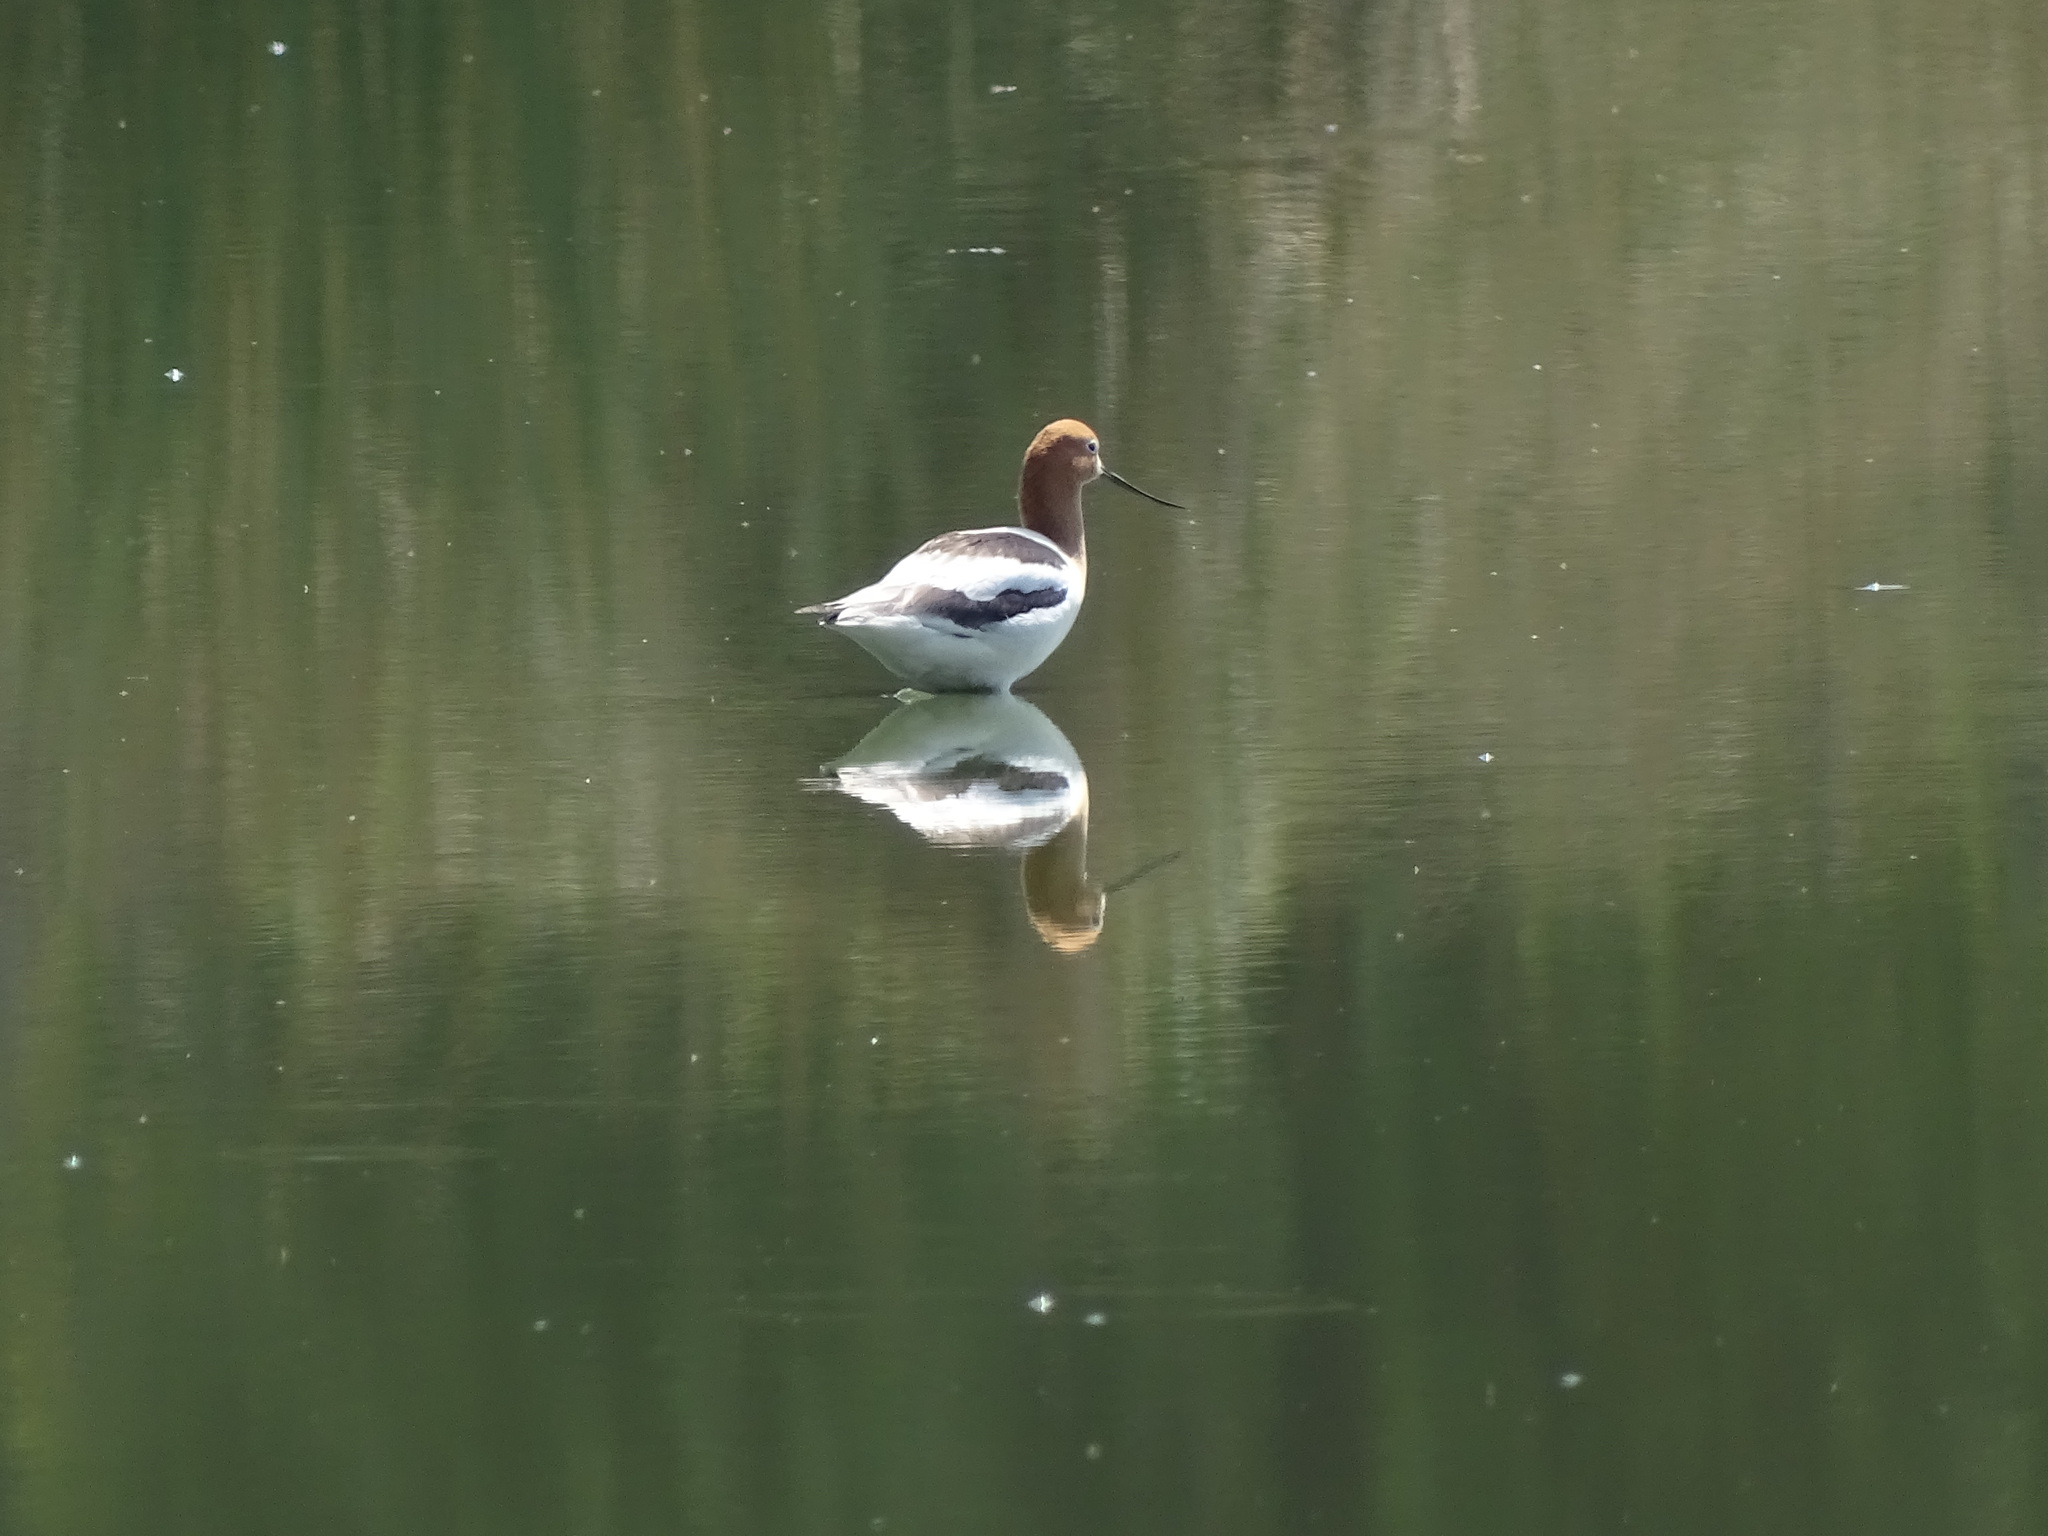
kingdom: Animalia
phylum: Chordata
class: Aves
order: Charadriiformes
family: Recurvirostridae
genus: Recurvirostra
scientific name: Recurvirostra americana
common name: American avocet
